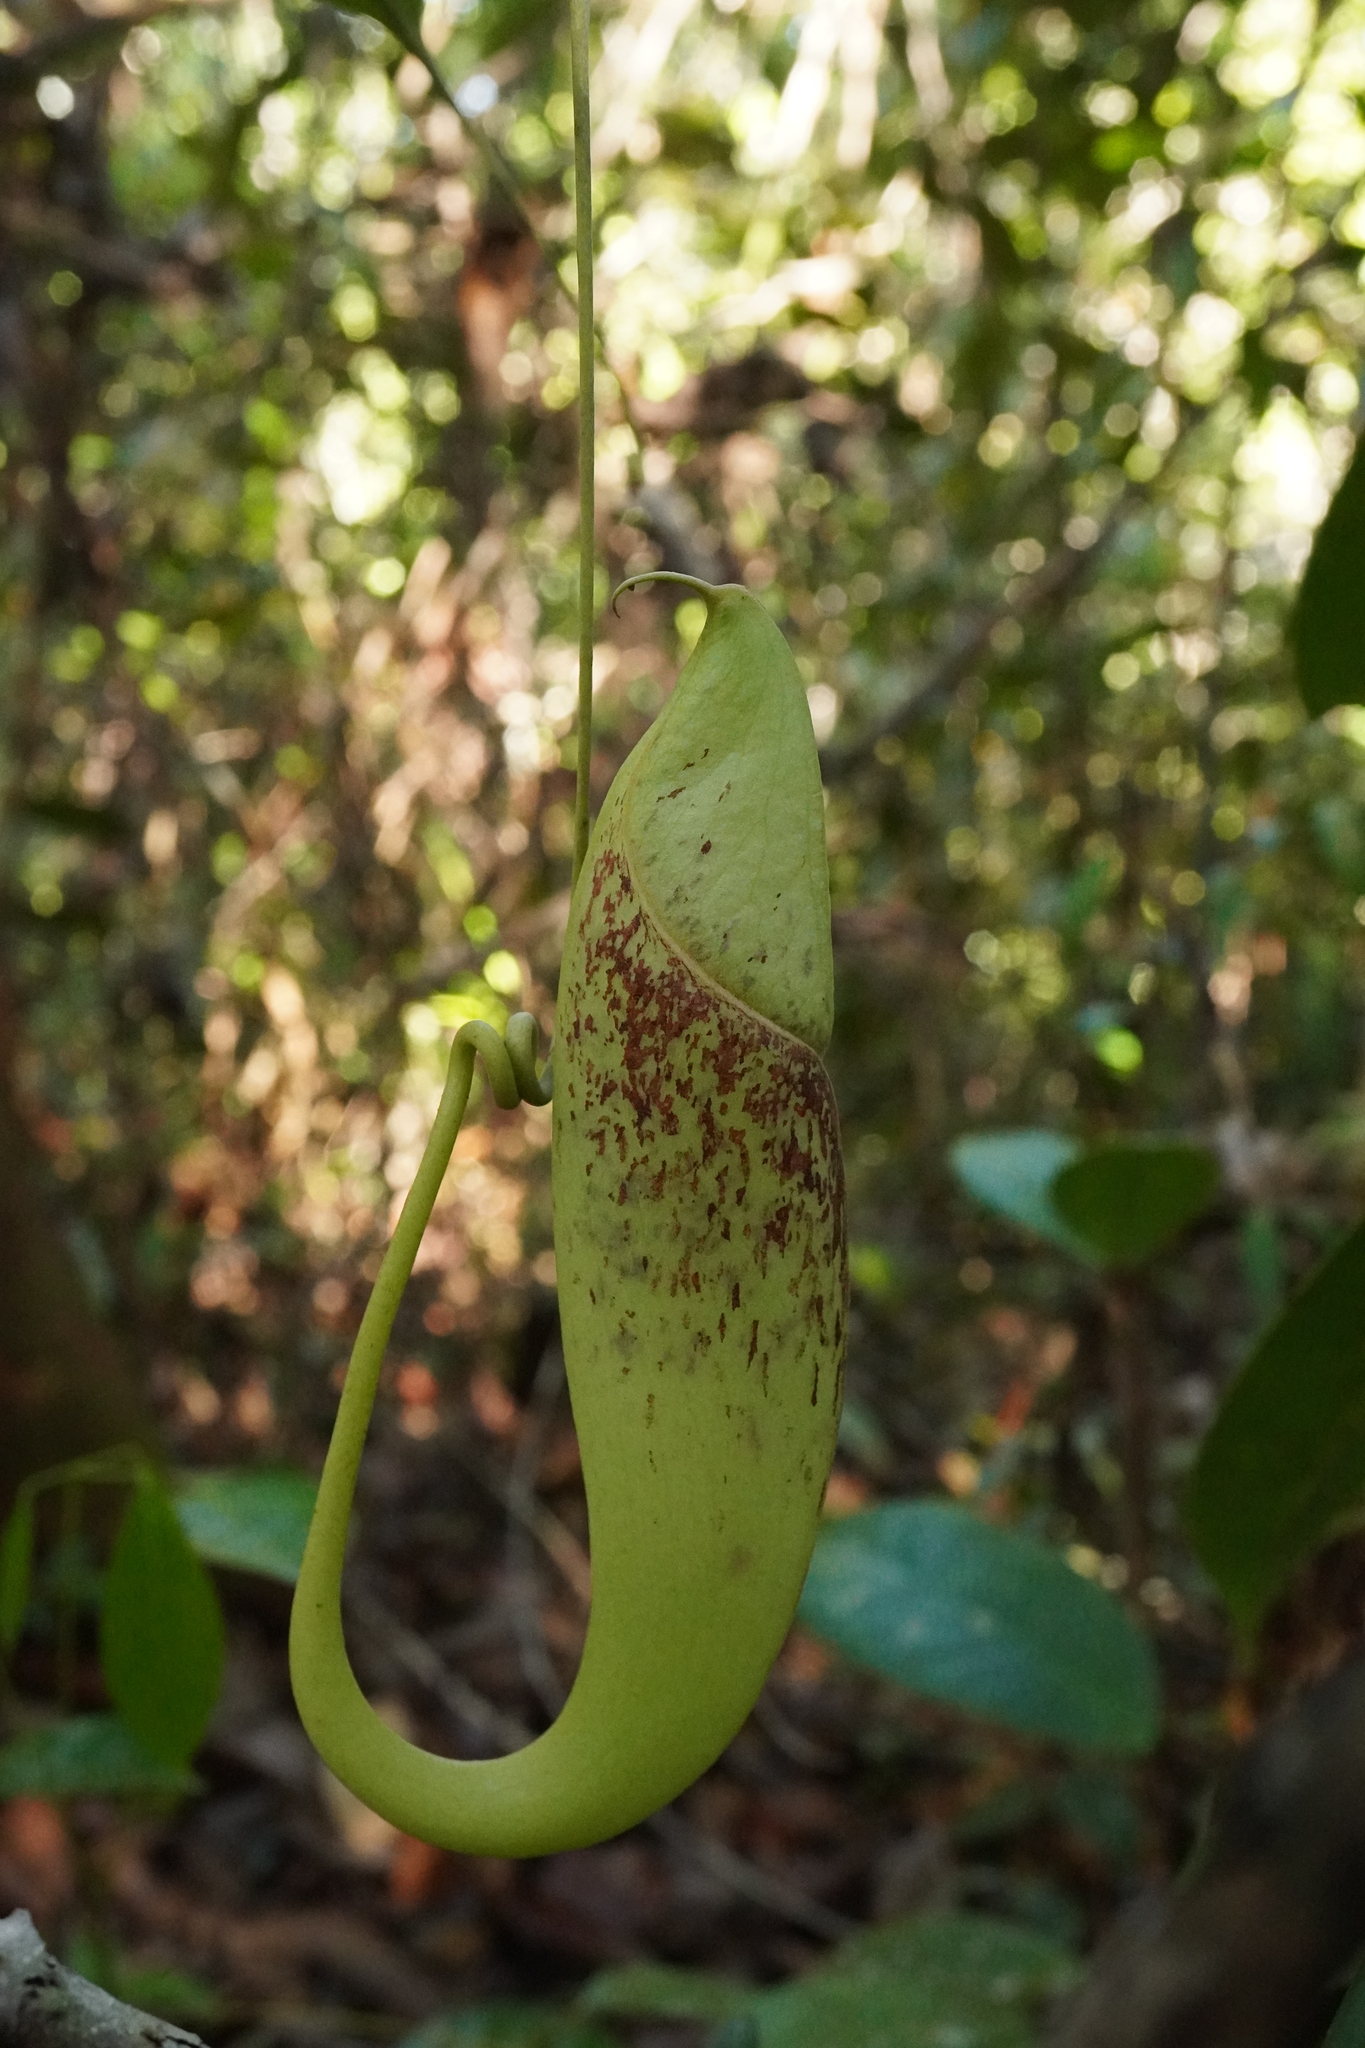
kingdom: Plantae
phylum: Tracheophyta
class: Magnoliopsida
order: Caryophyllales
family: Nepenthaceae
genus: Nepenthes
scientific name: Nepenthes rafflesiana
